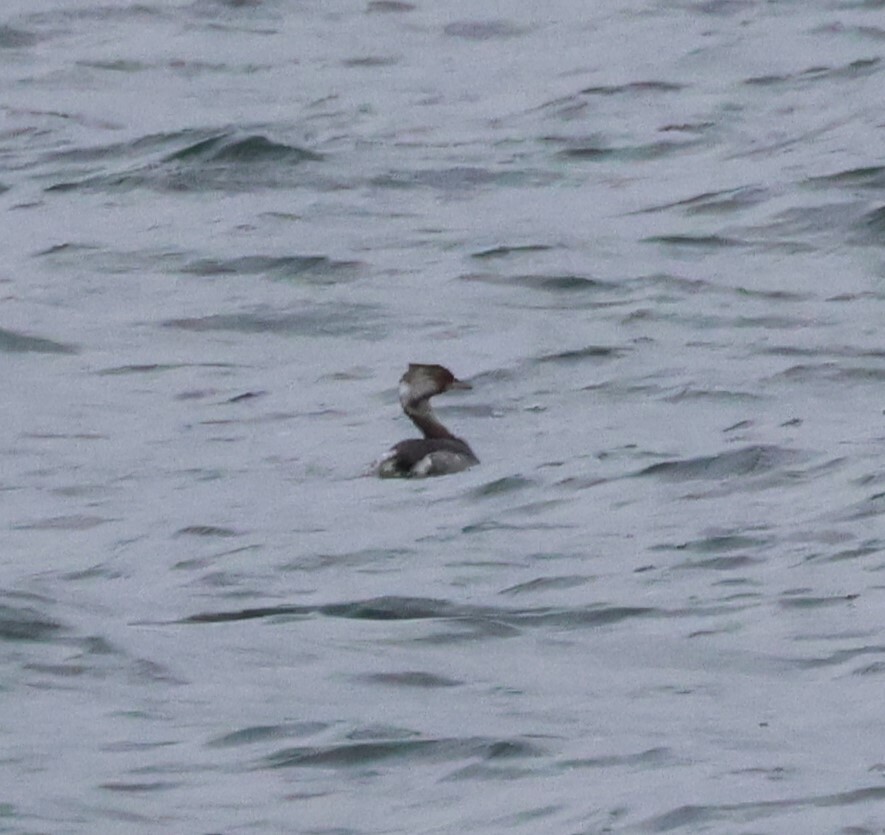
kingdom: Animalia
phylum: Chordata
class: Aves
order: Podicipediformes
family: Podicipedidae
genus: Podiceps
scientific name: Podiceps auritus
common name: Horned grebe
